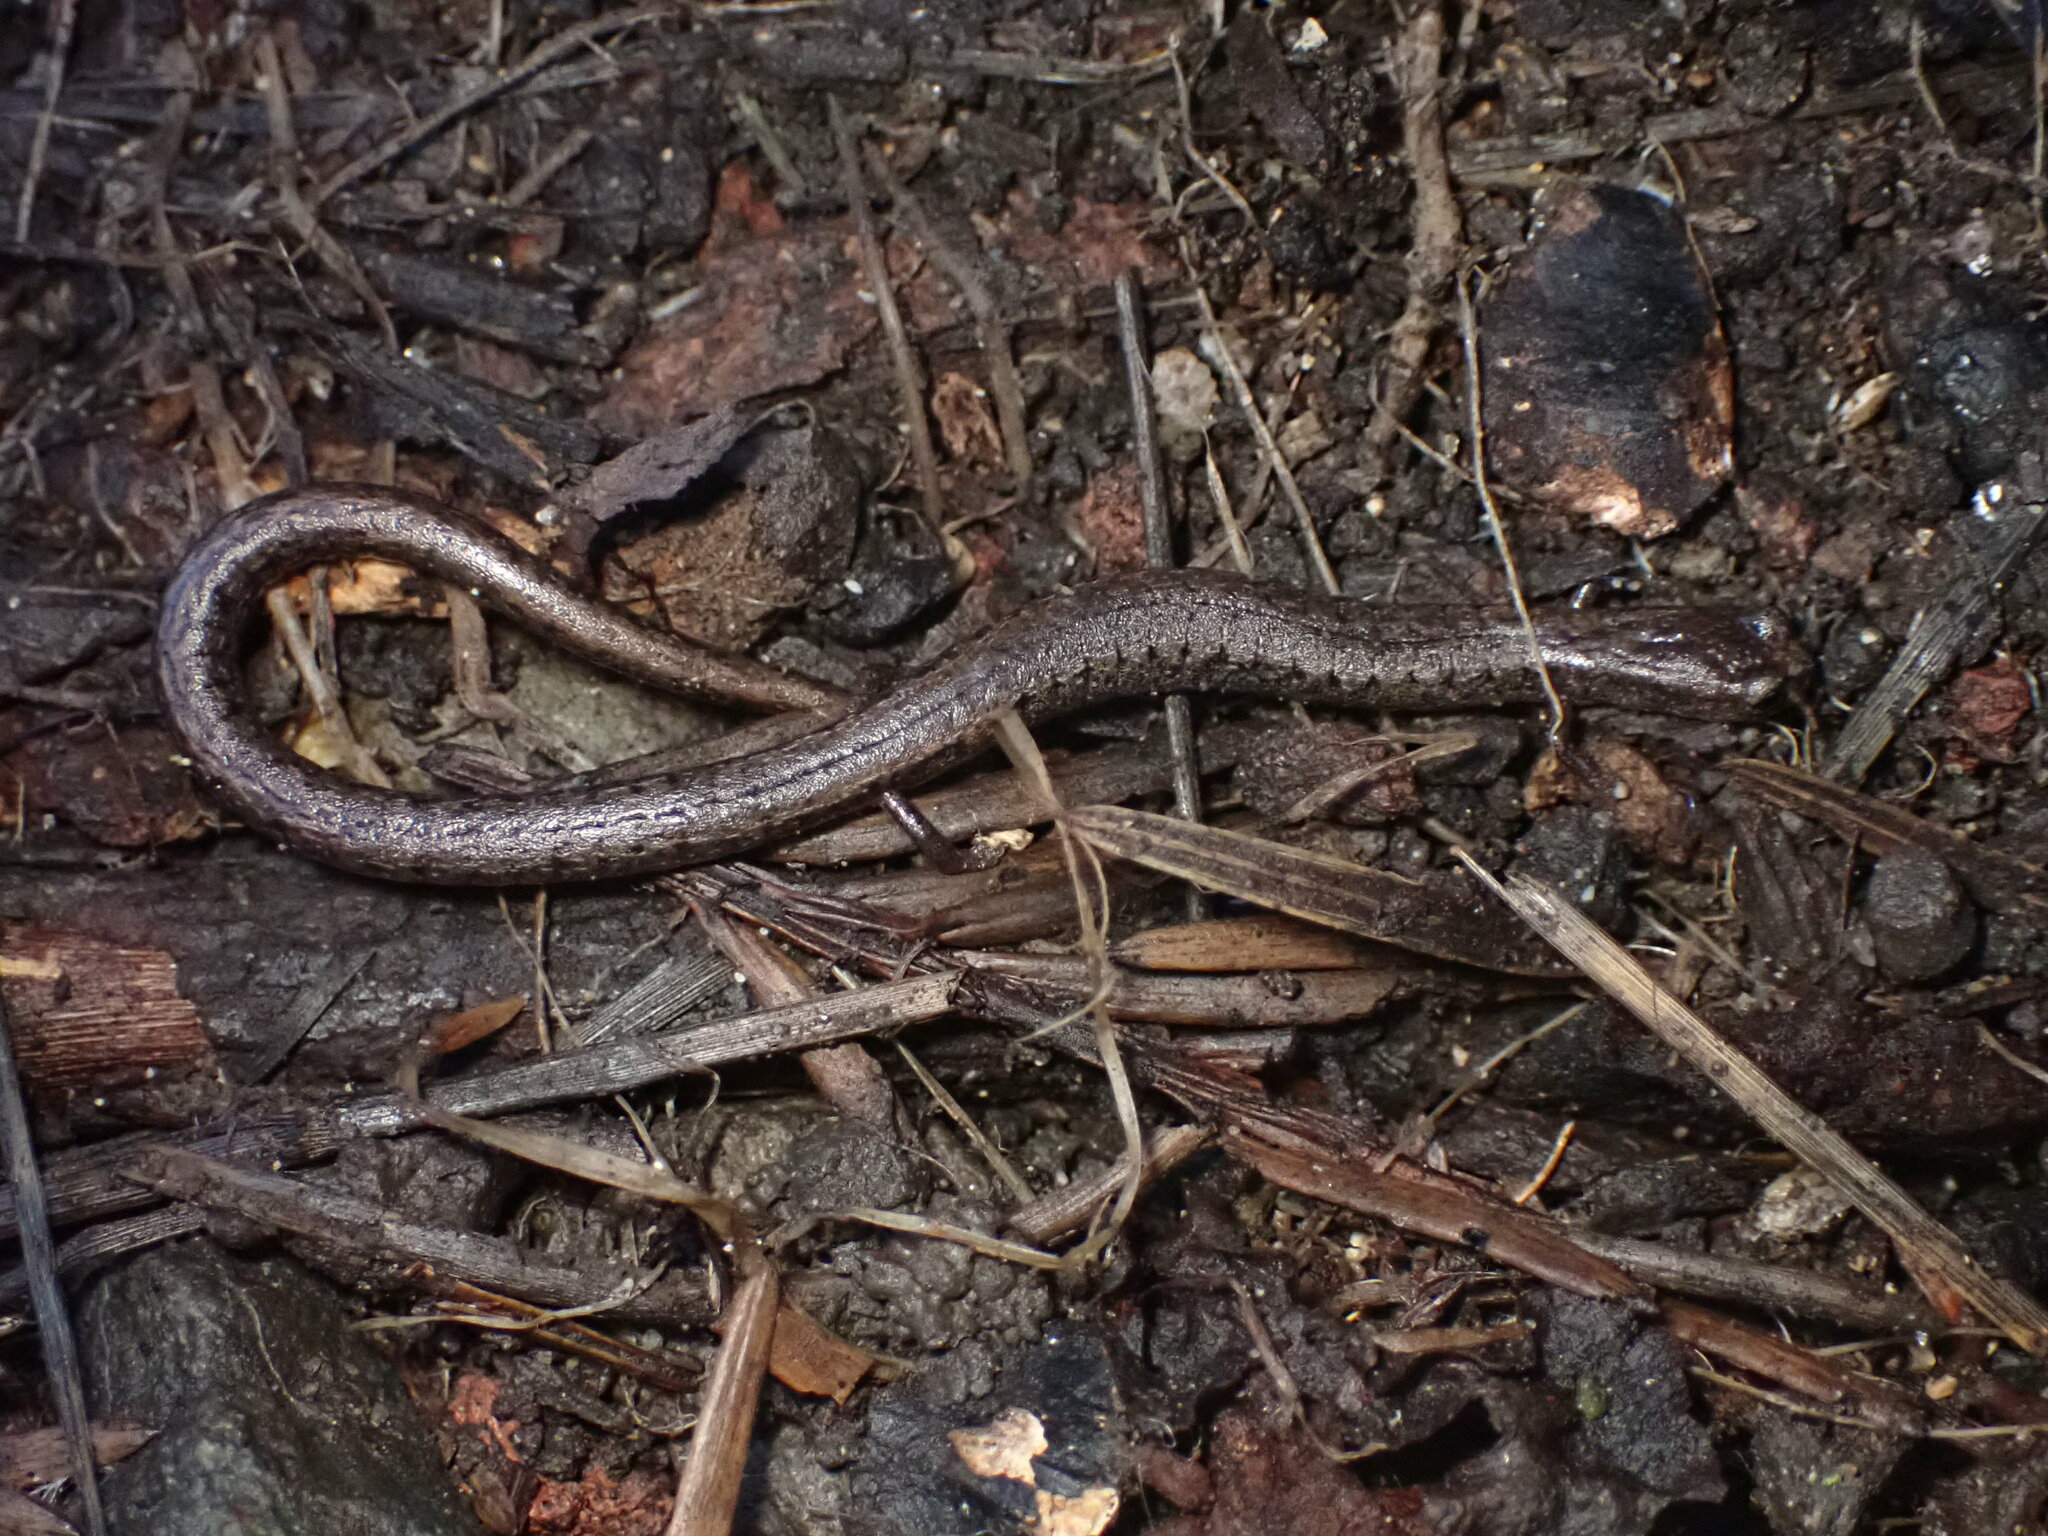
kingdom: Animalia
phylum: Chordata
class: Amphibia
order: Caudata
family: Plethodontidae
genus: Batrachoseps
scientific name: Batrachoseps attenuatus
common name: California slender salamander
